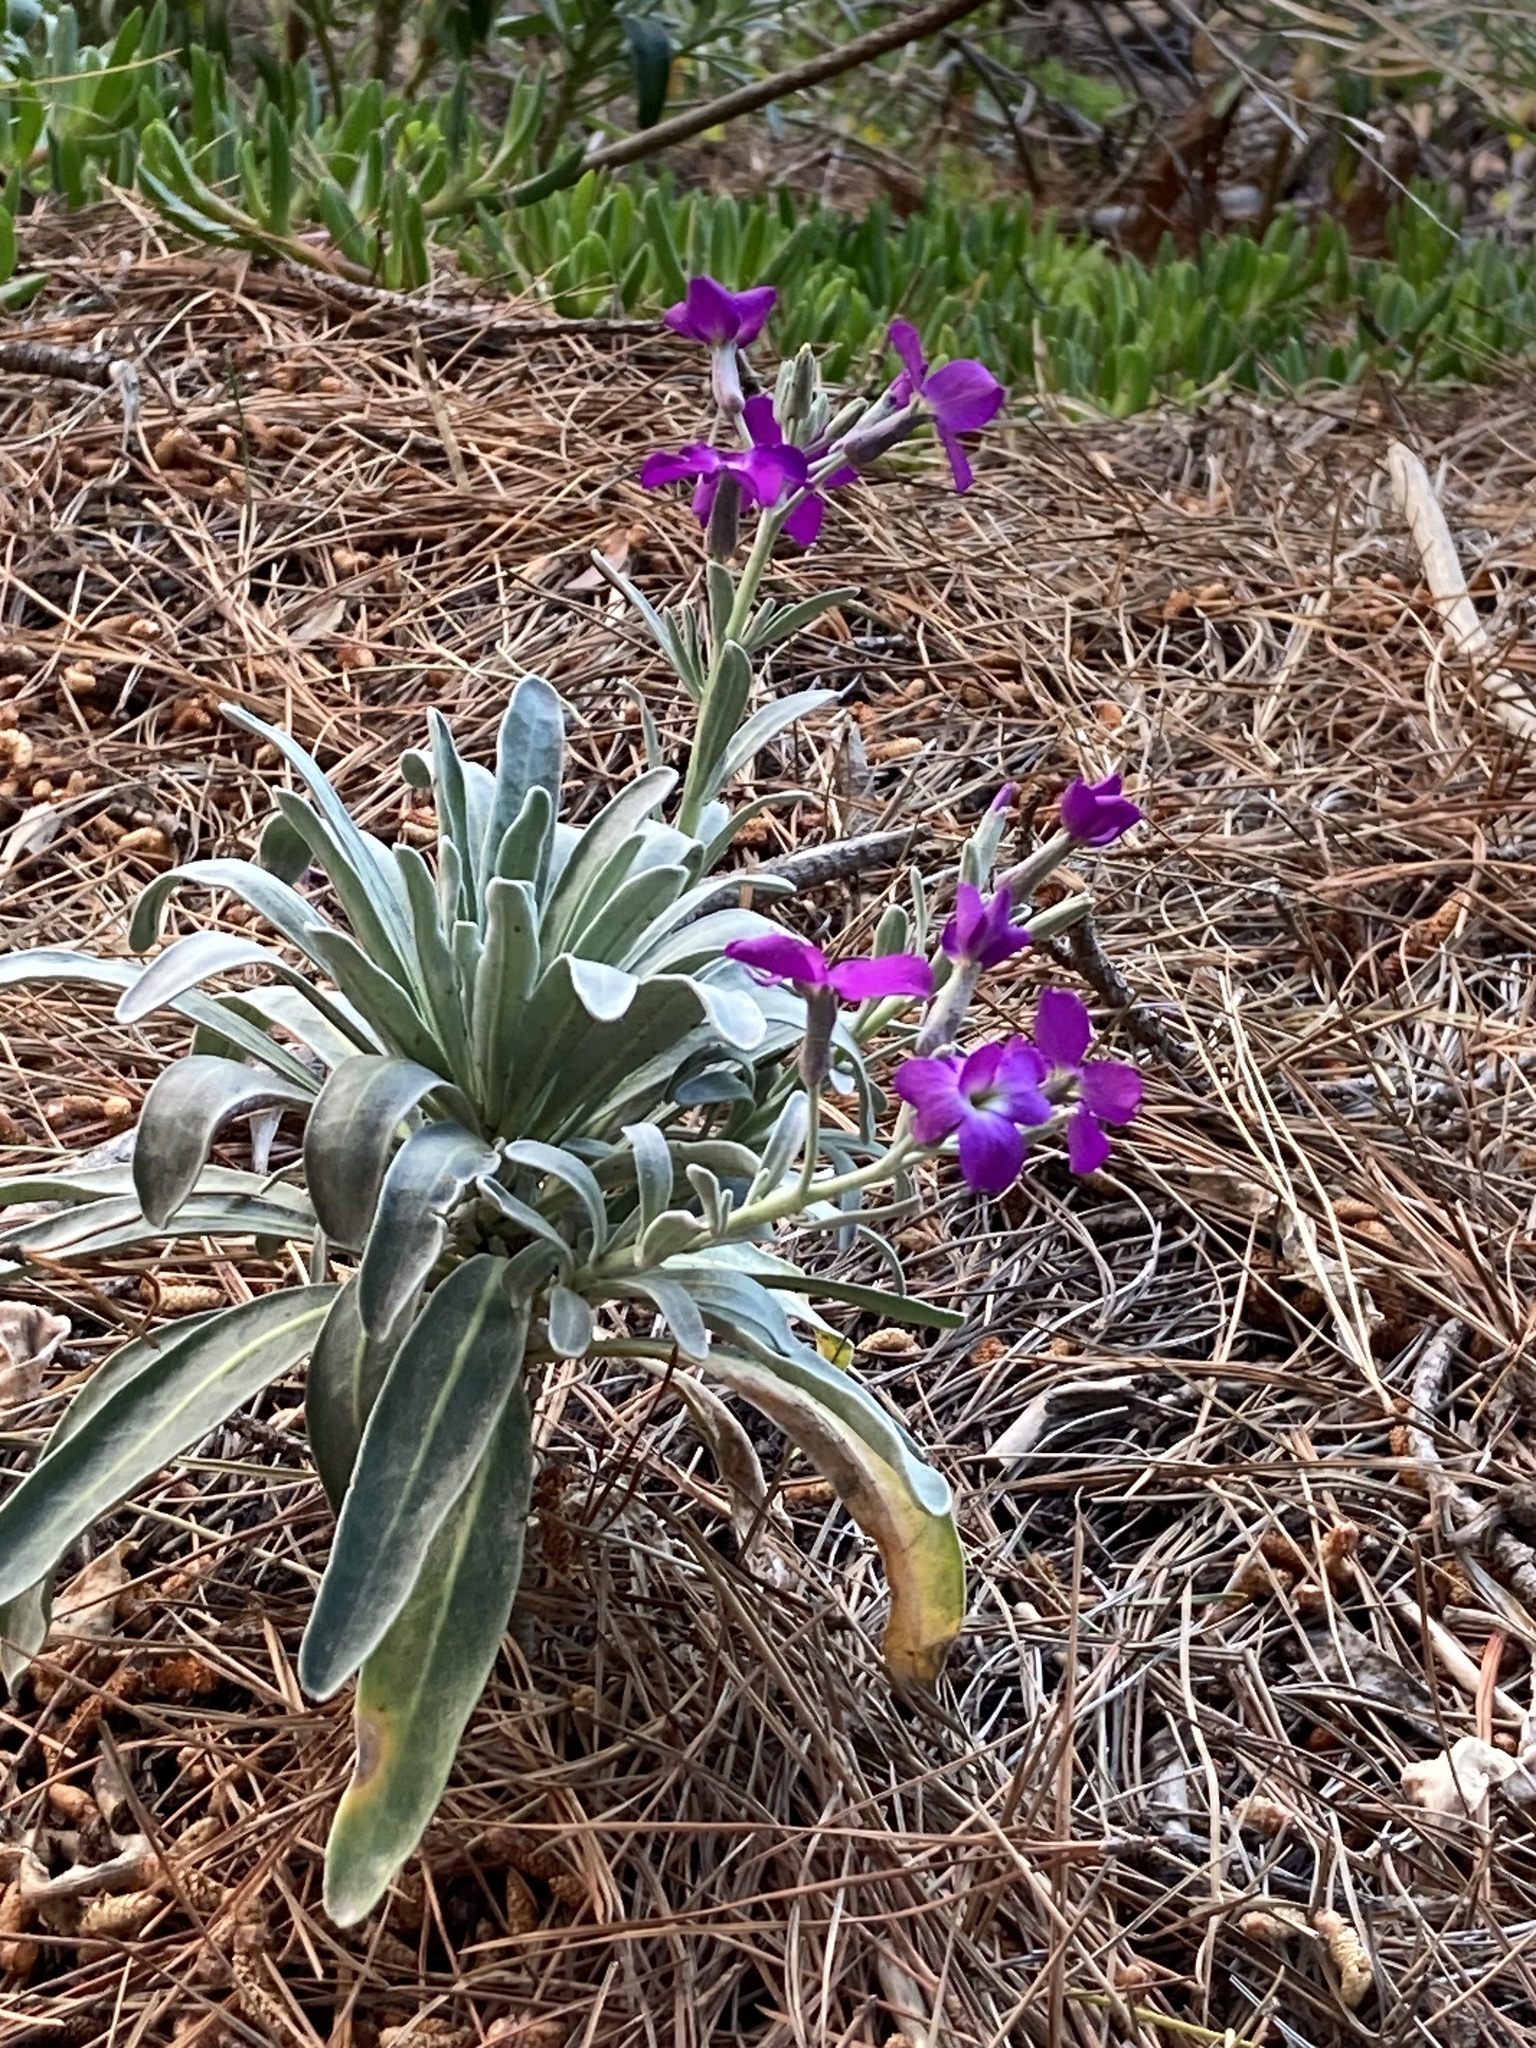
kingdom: Plantae
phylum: Tracheophyta
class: Magnoliopsida
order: Brassicales
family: Brassicaceae
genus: Matthiola
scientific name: Matthiola incana
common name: Hoary stock
